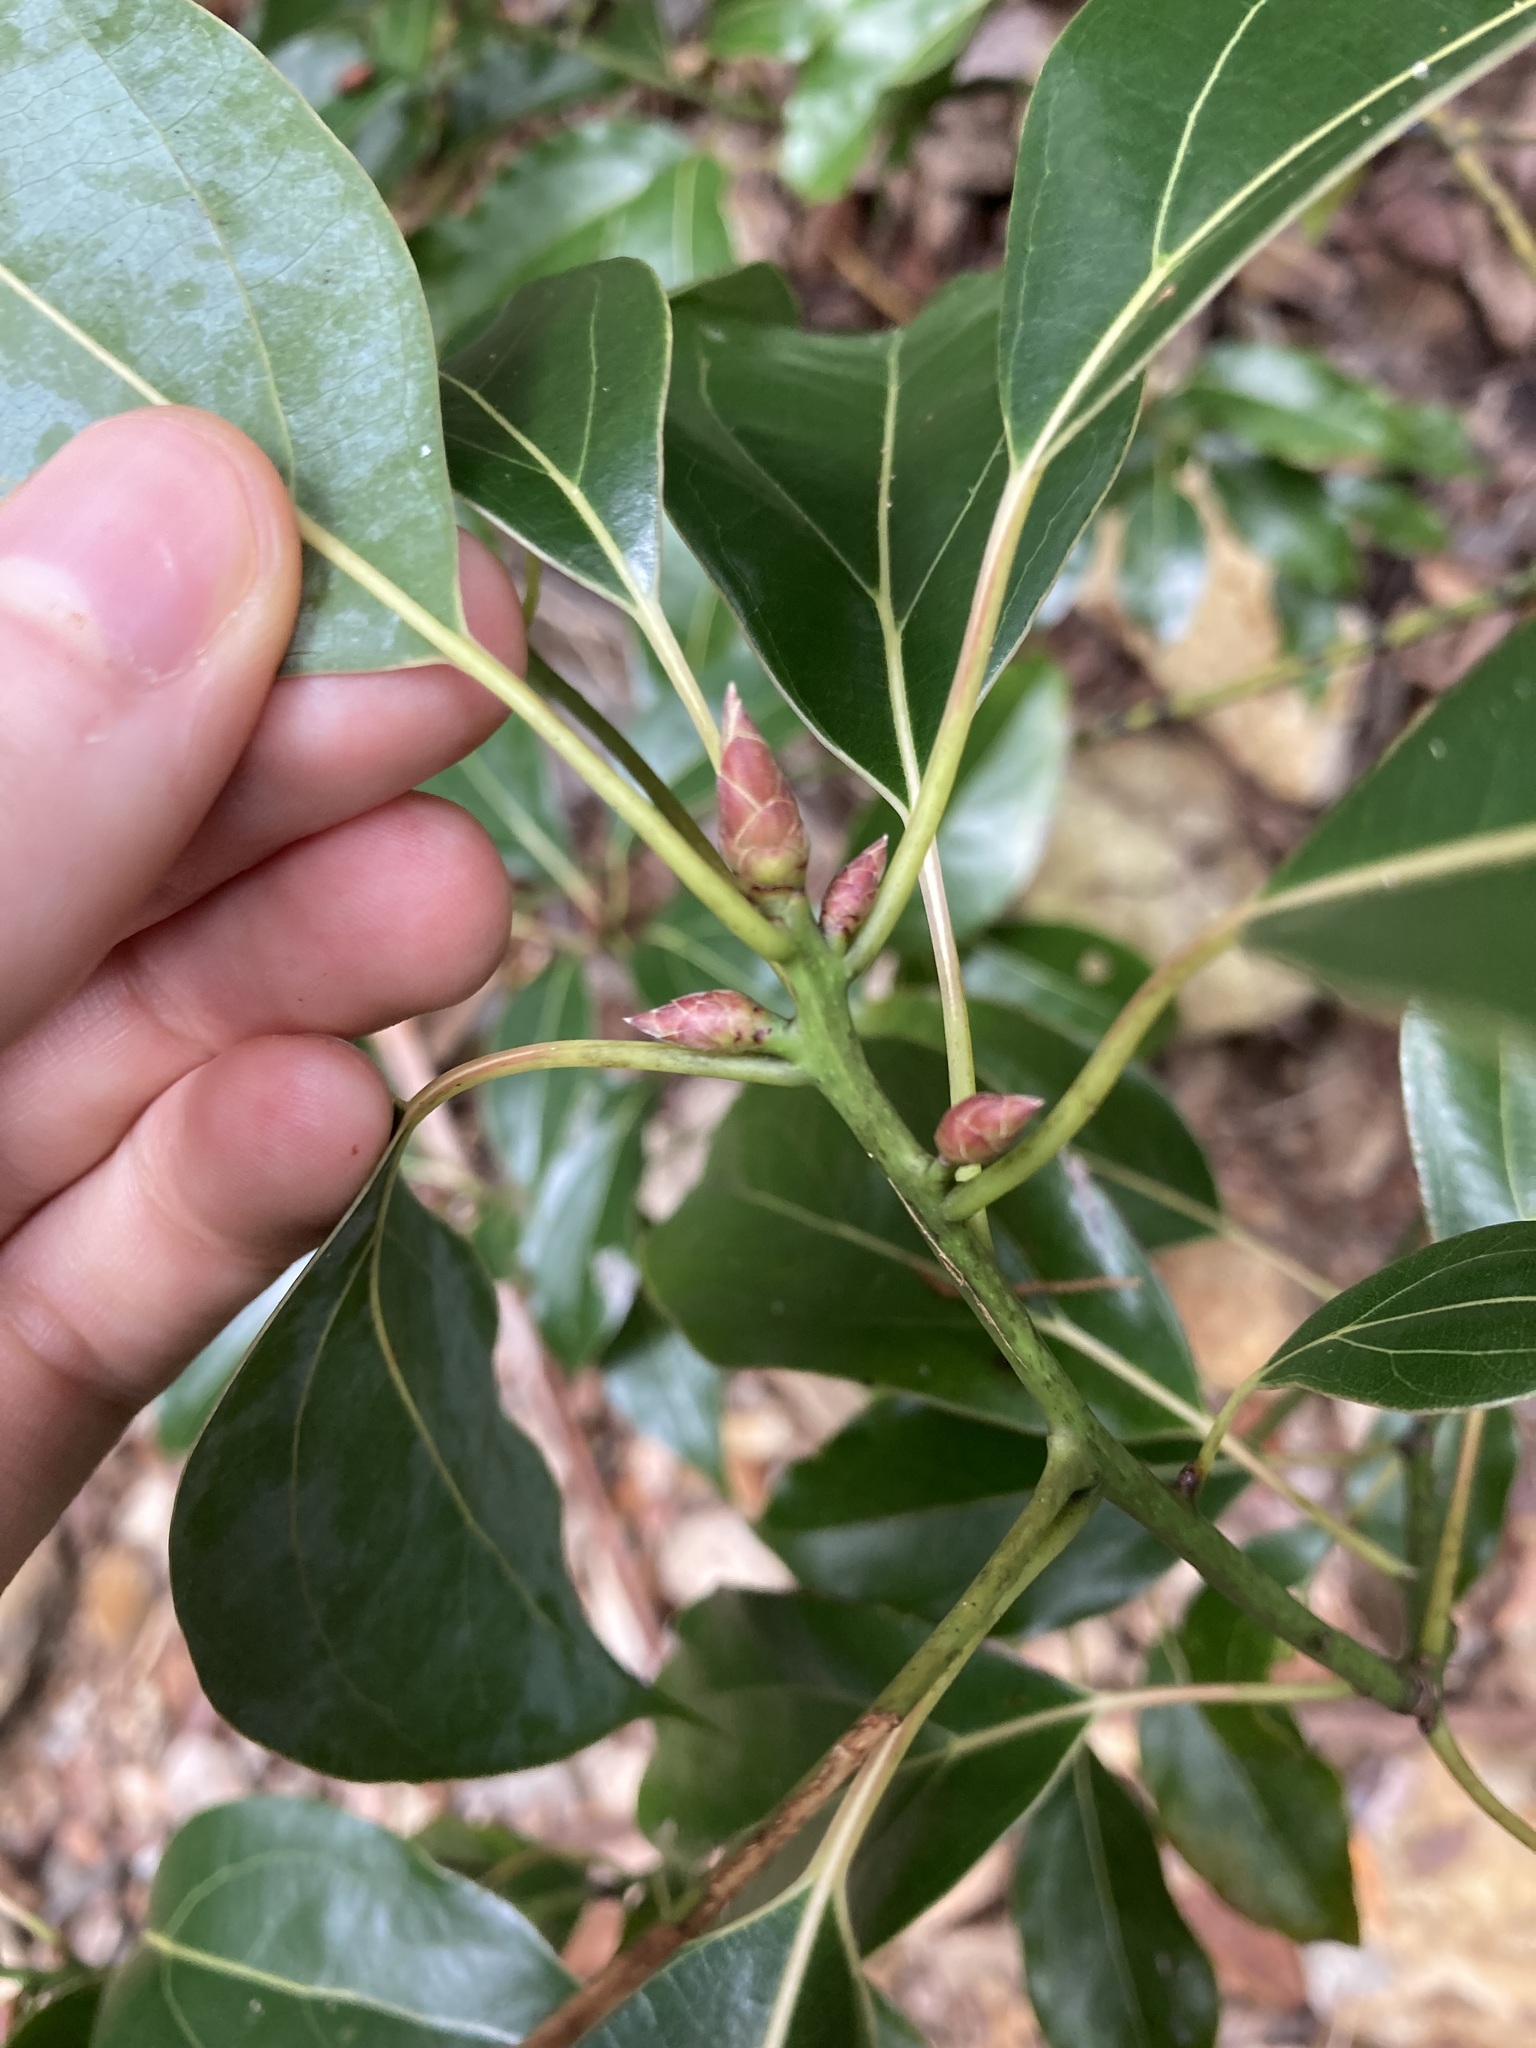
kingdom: Plantae
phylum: Tracheophyta
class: Magnoliopsida
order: Laurales
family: Lauraceae
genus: Cinnamomum
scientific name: Cinnamomum camphora
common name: Camphortree
